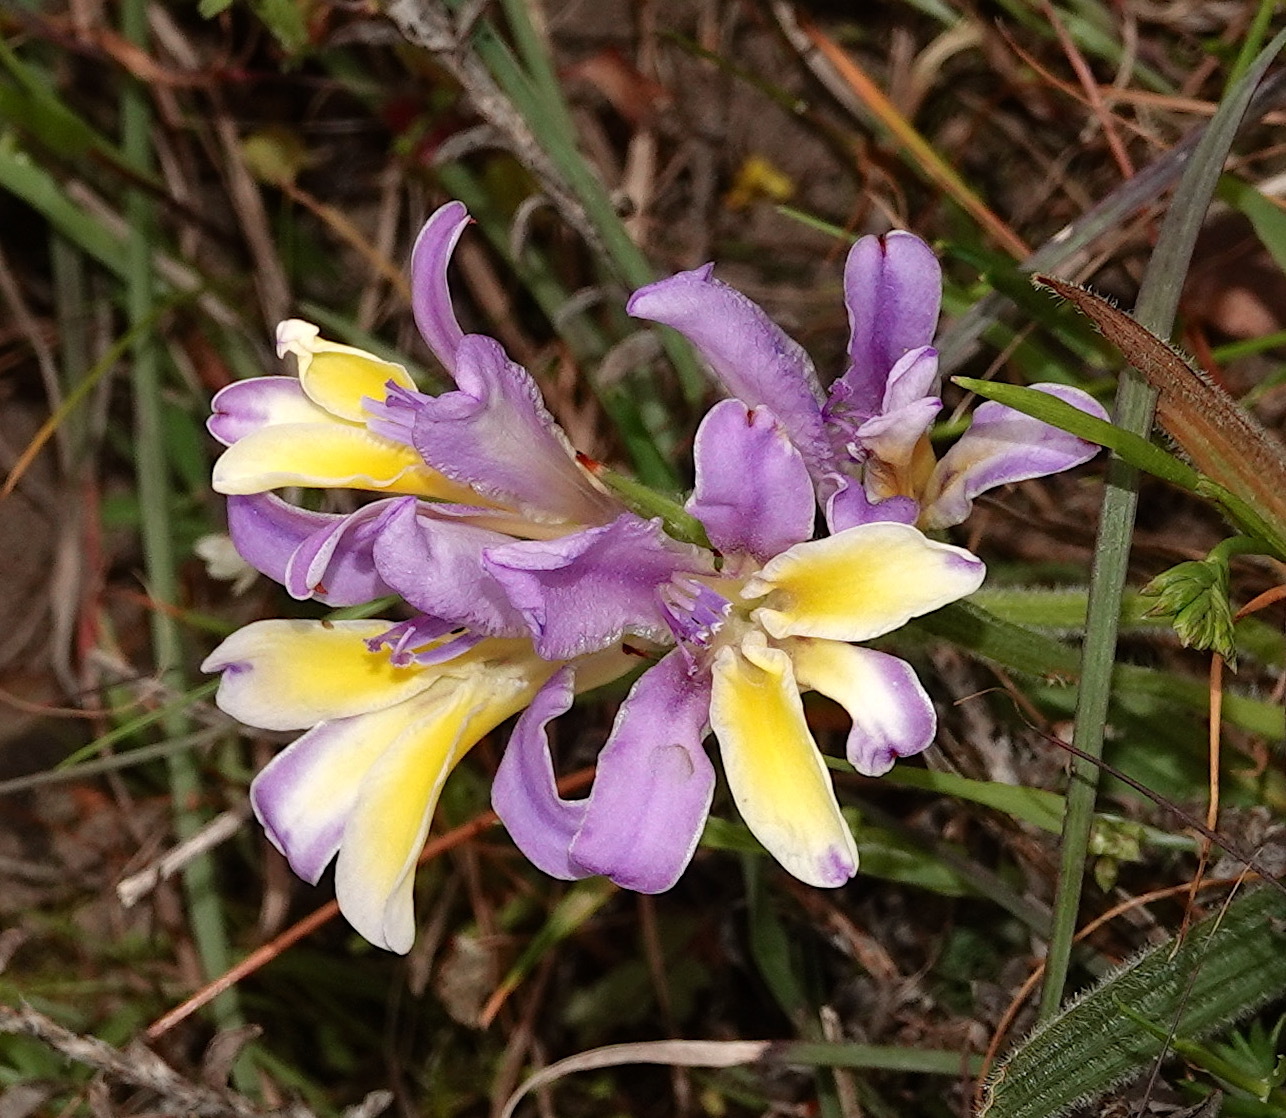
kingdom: Plantae
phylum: Tracheophyta
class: Liliopsida
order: Asparagales
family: Iridaceae
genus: Babiana
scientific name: Babiana patula
